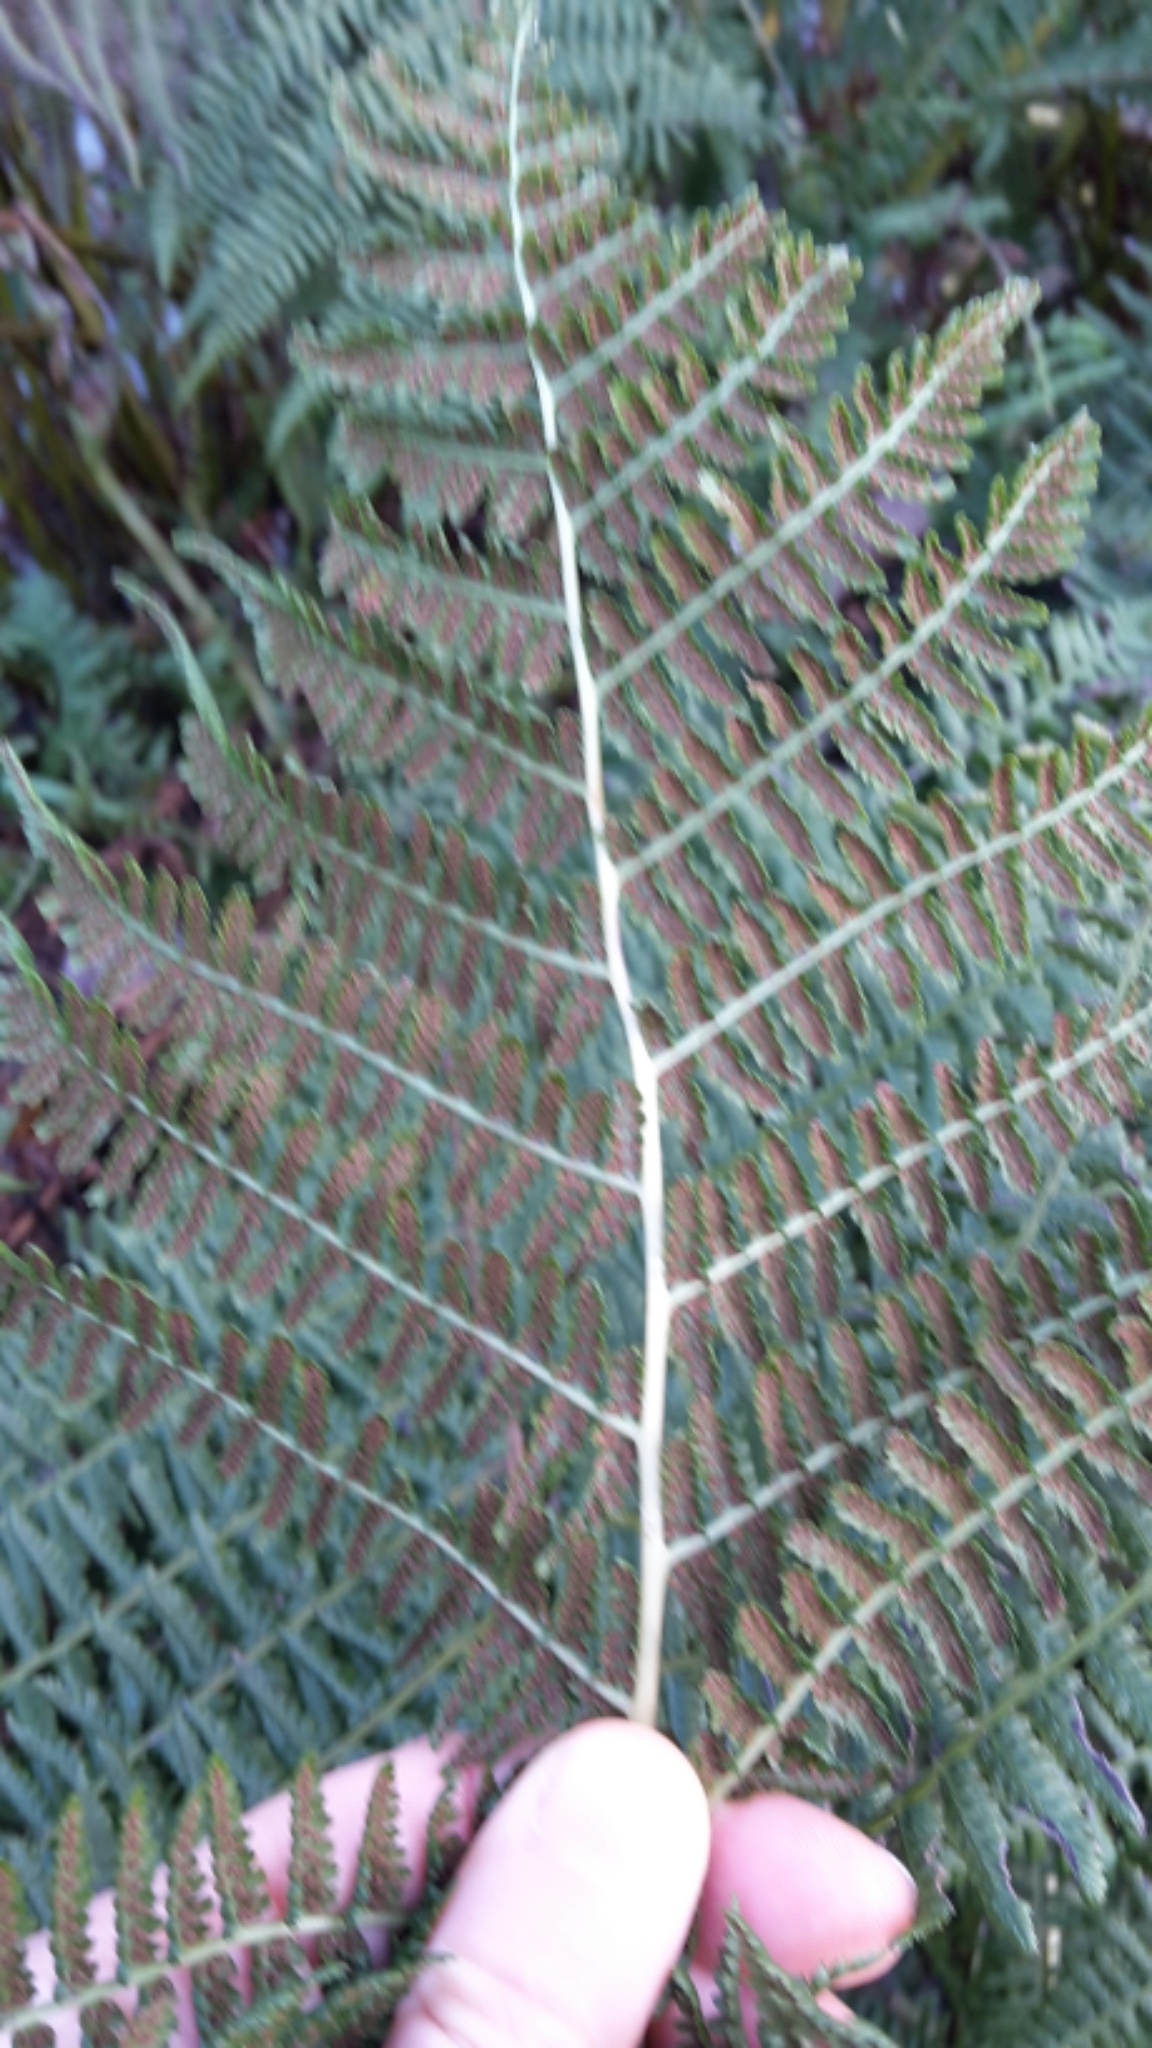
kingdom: Plantae
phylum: Tracheophyta
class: Polypodiopsida
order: Polypodiales
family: Athyriaceae
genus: Athyrium
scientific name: Athyrium filix-femina
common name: Lady fern
